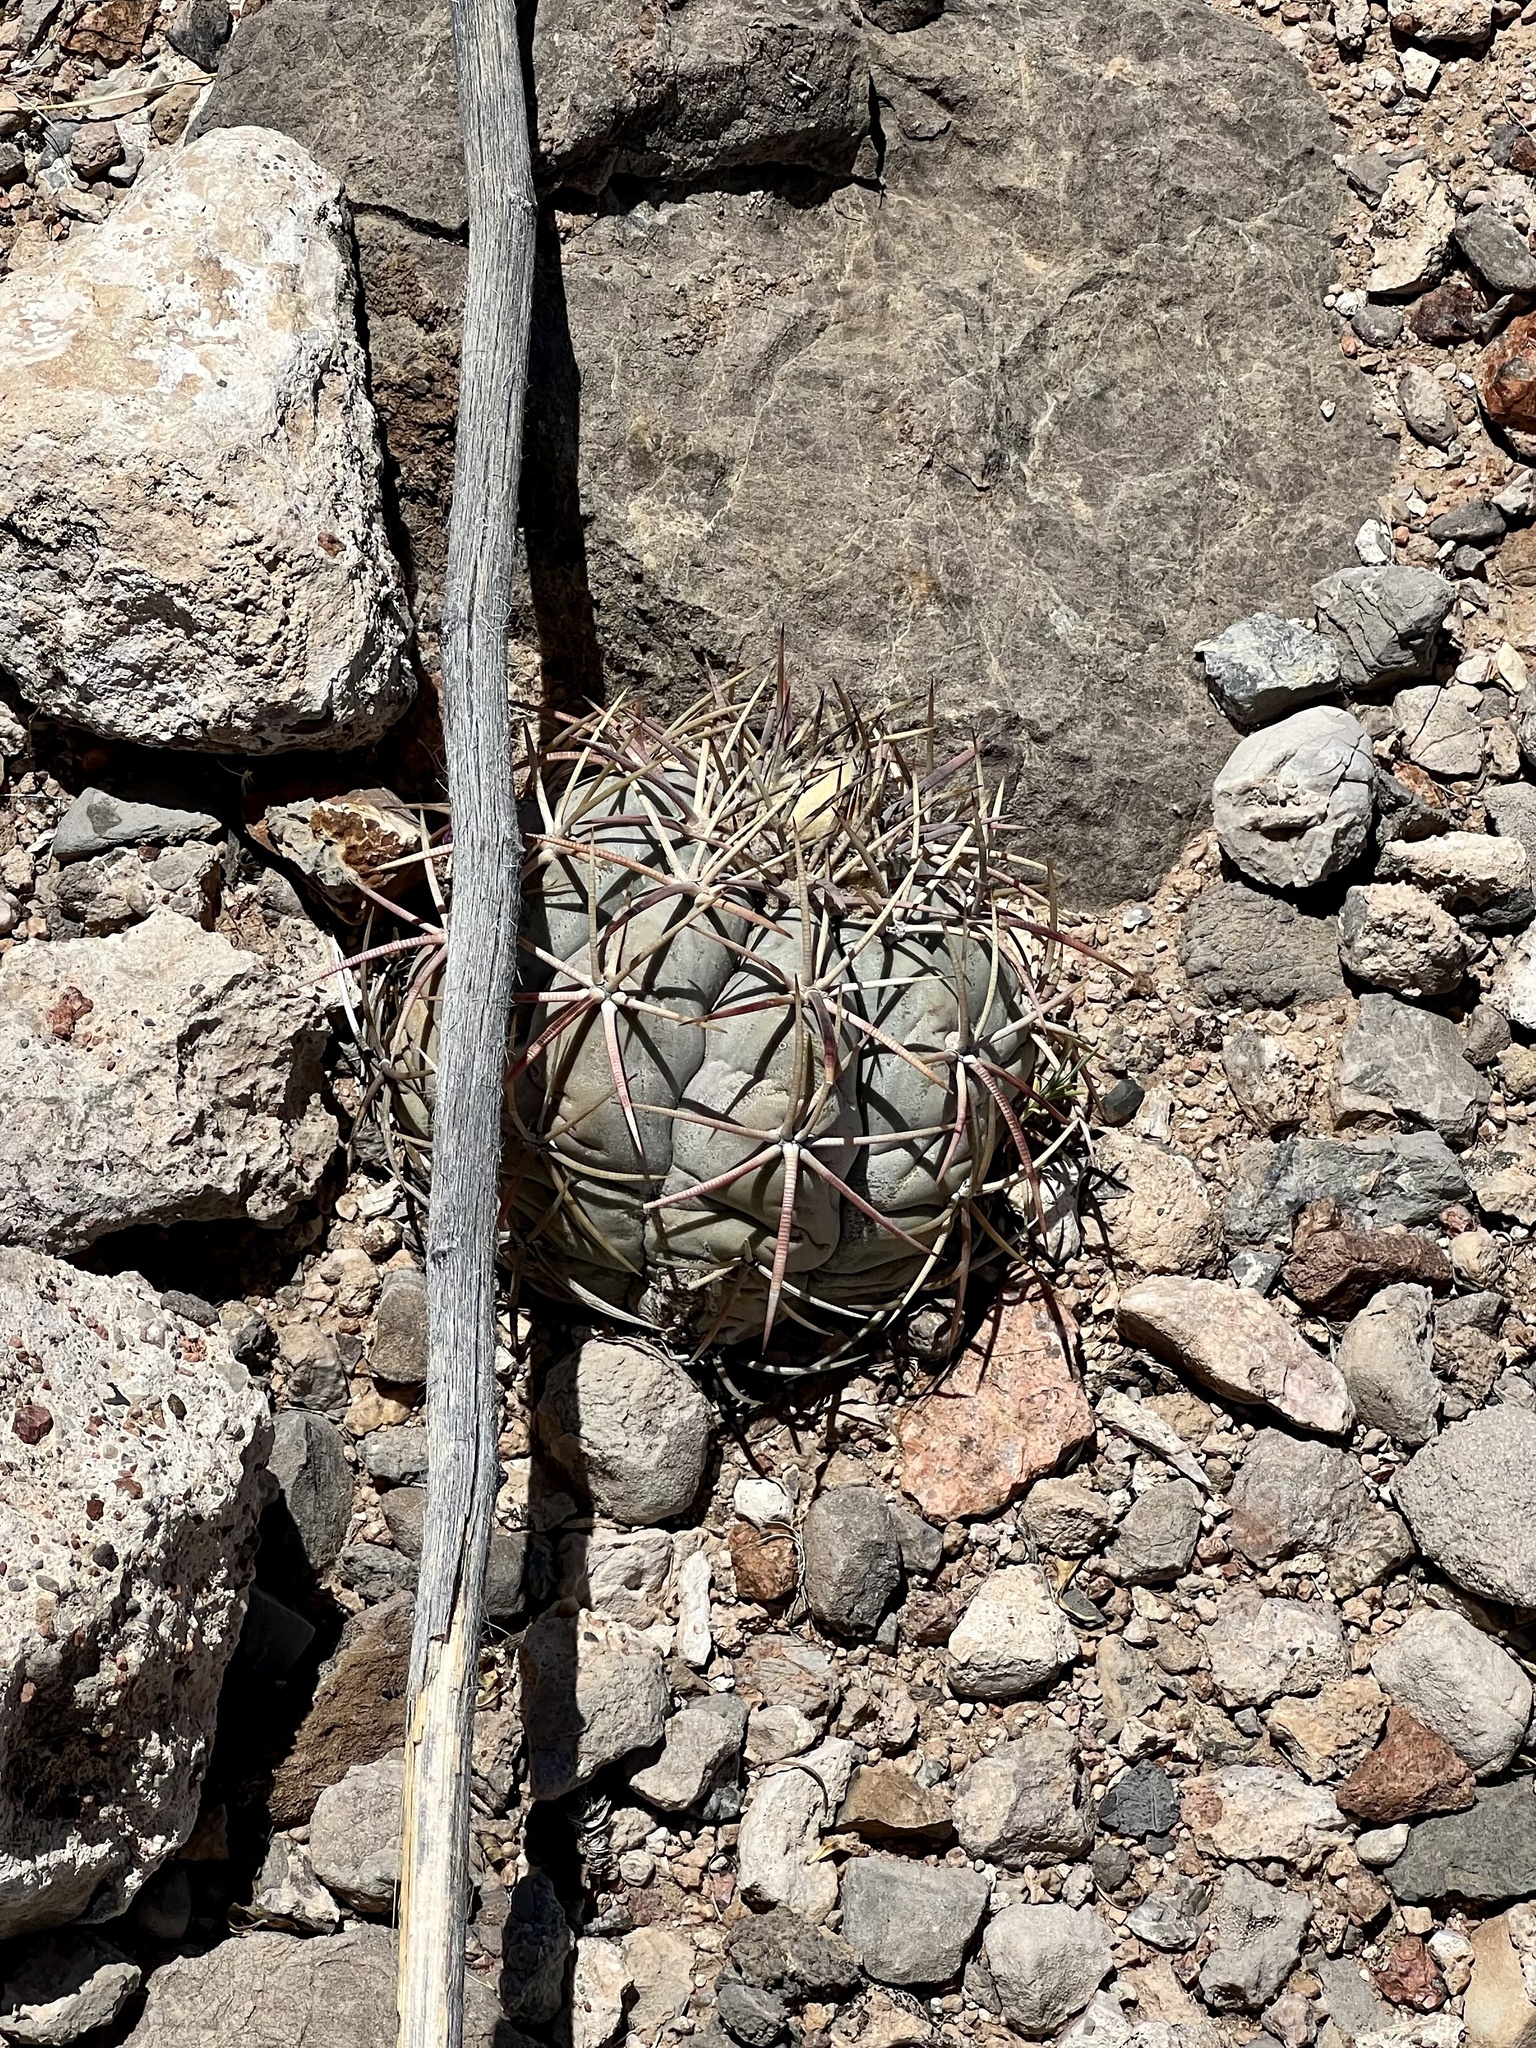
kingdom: Plantae
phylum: Tracheophyta
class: Magnoliopsida
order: Caryophyllales
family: Cactaceae
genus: Echinocactus
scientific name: Echinocactus horizonthalonius
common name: Devilshead
